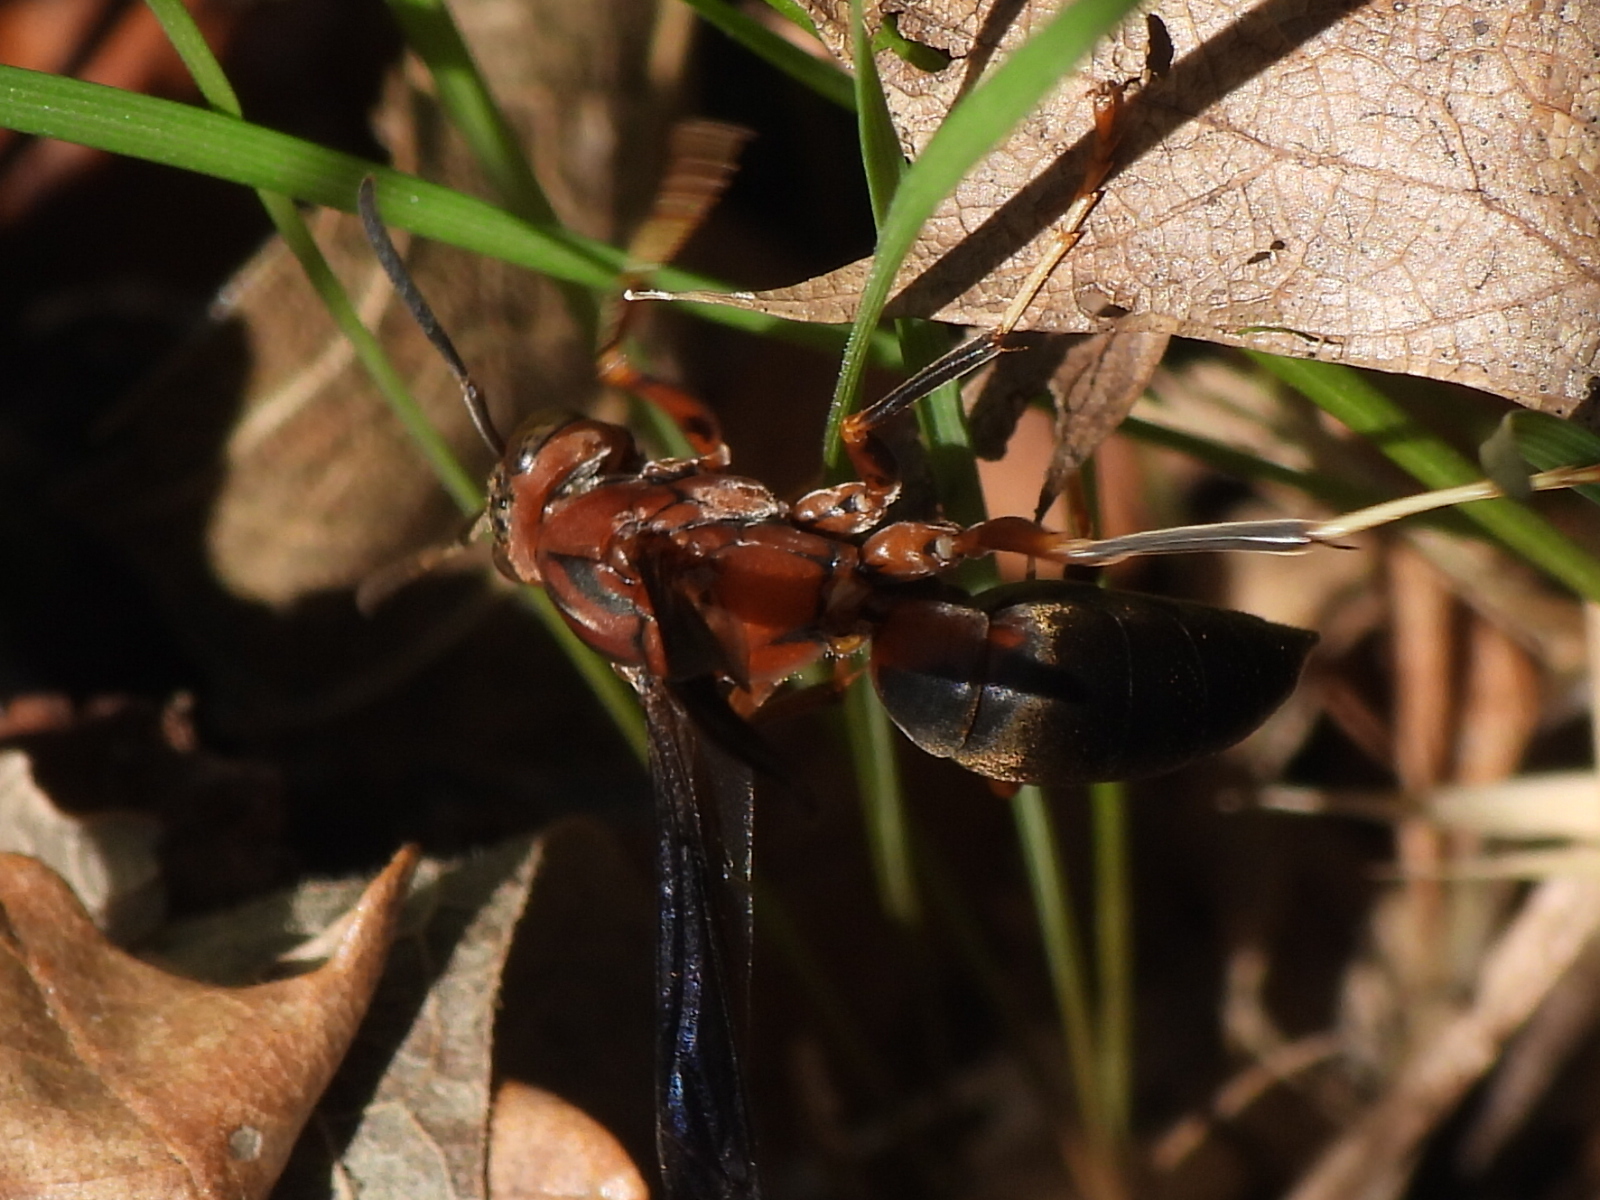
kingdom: Animalia
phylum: Arthropoda
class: Insecta
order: Hymenoptera
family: Eumenidae
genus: Polistes
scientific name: Polistes metricus
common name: Metric paper wasp
